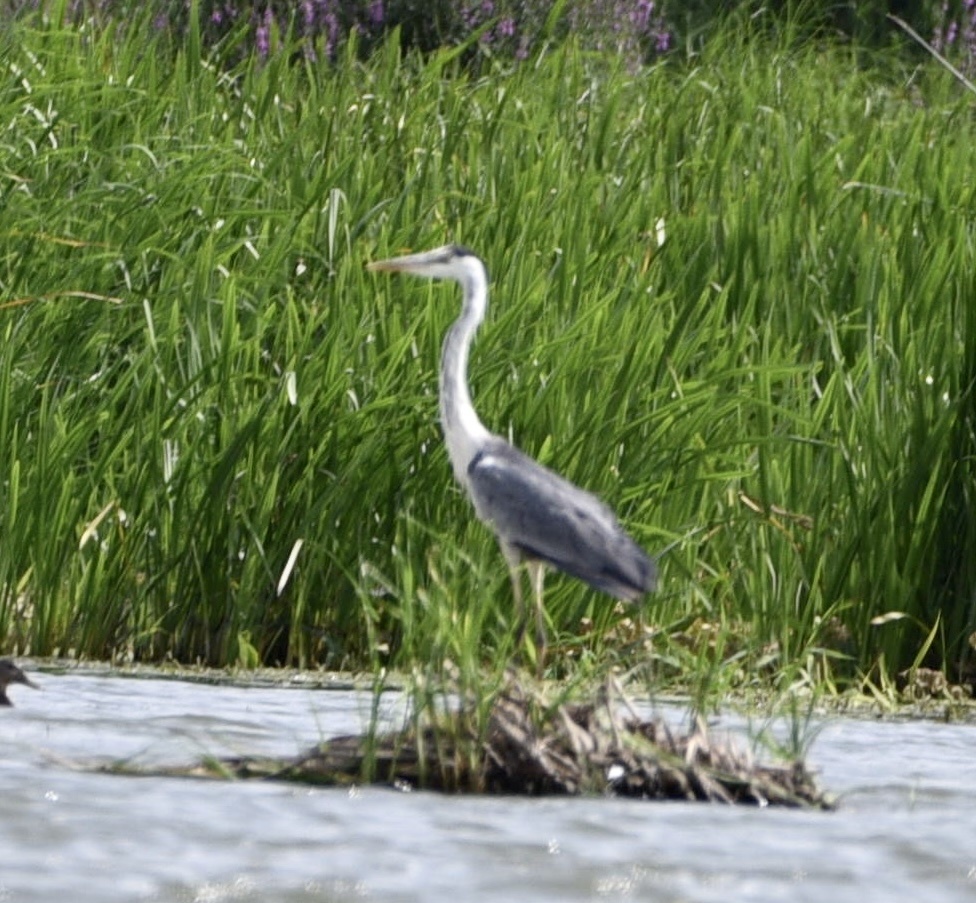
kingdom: Animalia
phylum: Chordata
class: Aves
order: Pelecaniformes
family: Ardeidae
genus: Ardea
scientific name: Ardea cinerea
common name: Grey heron
